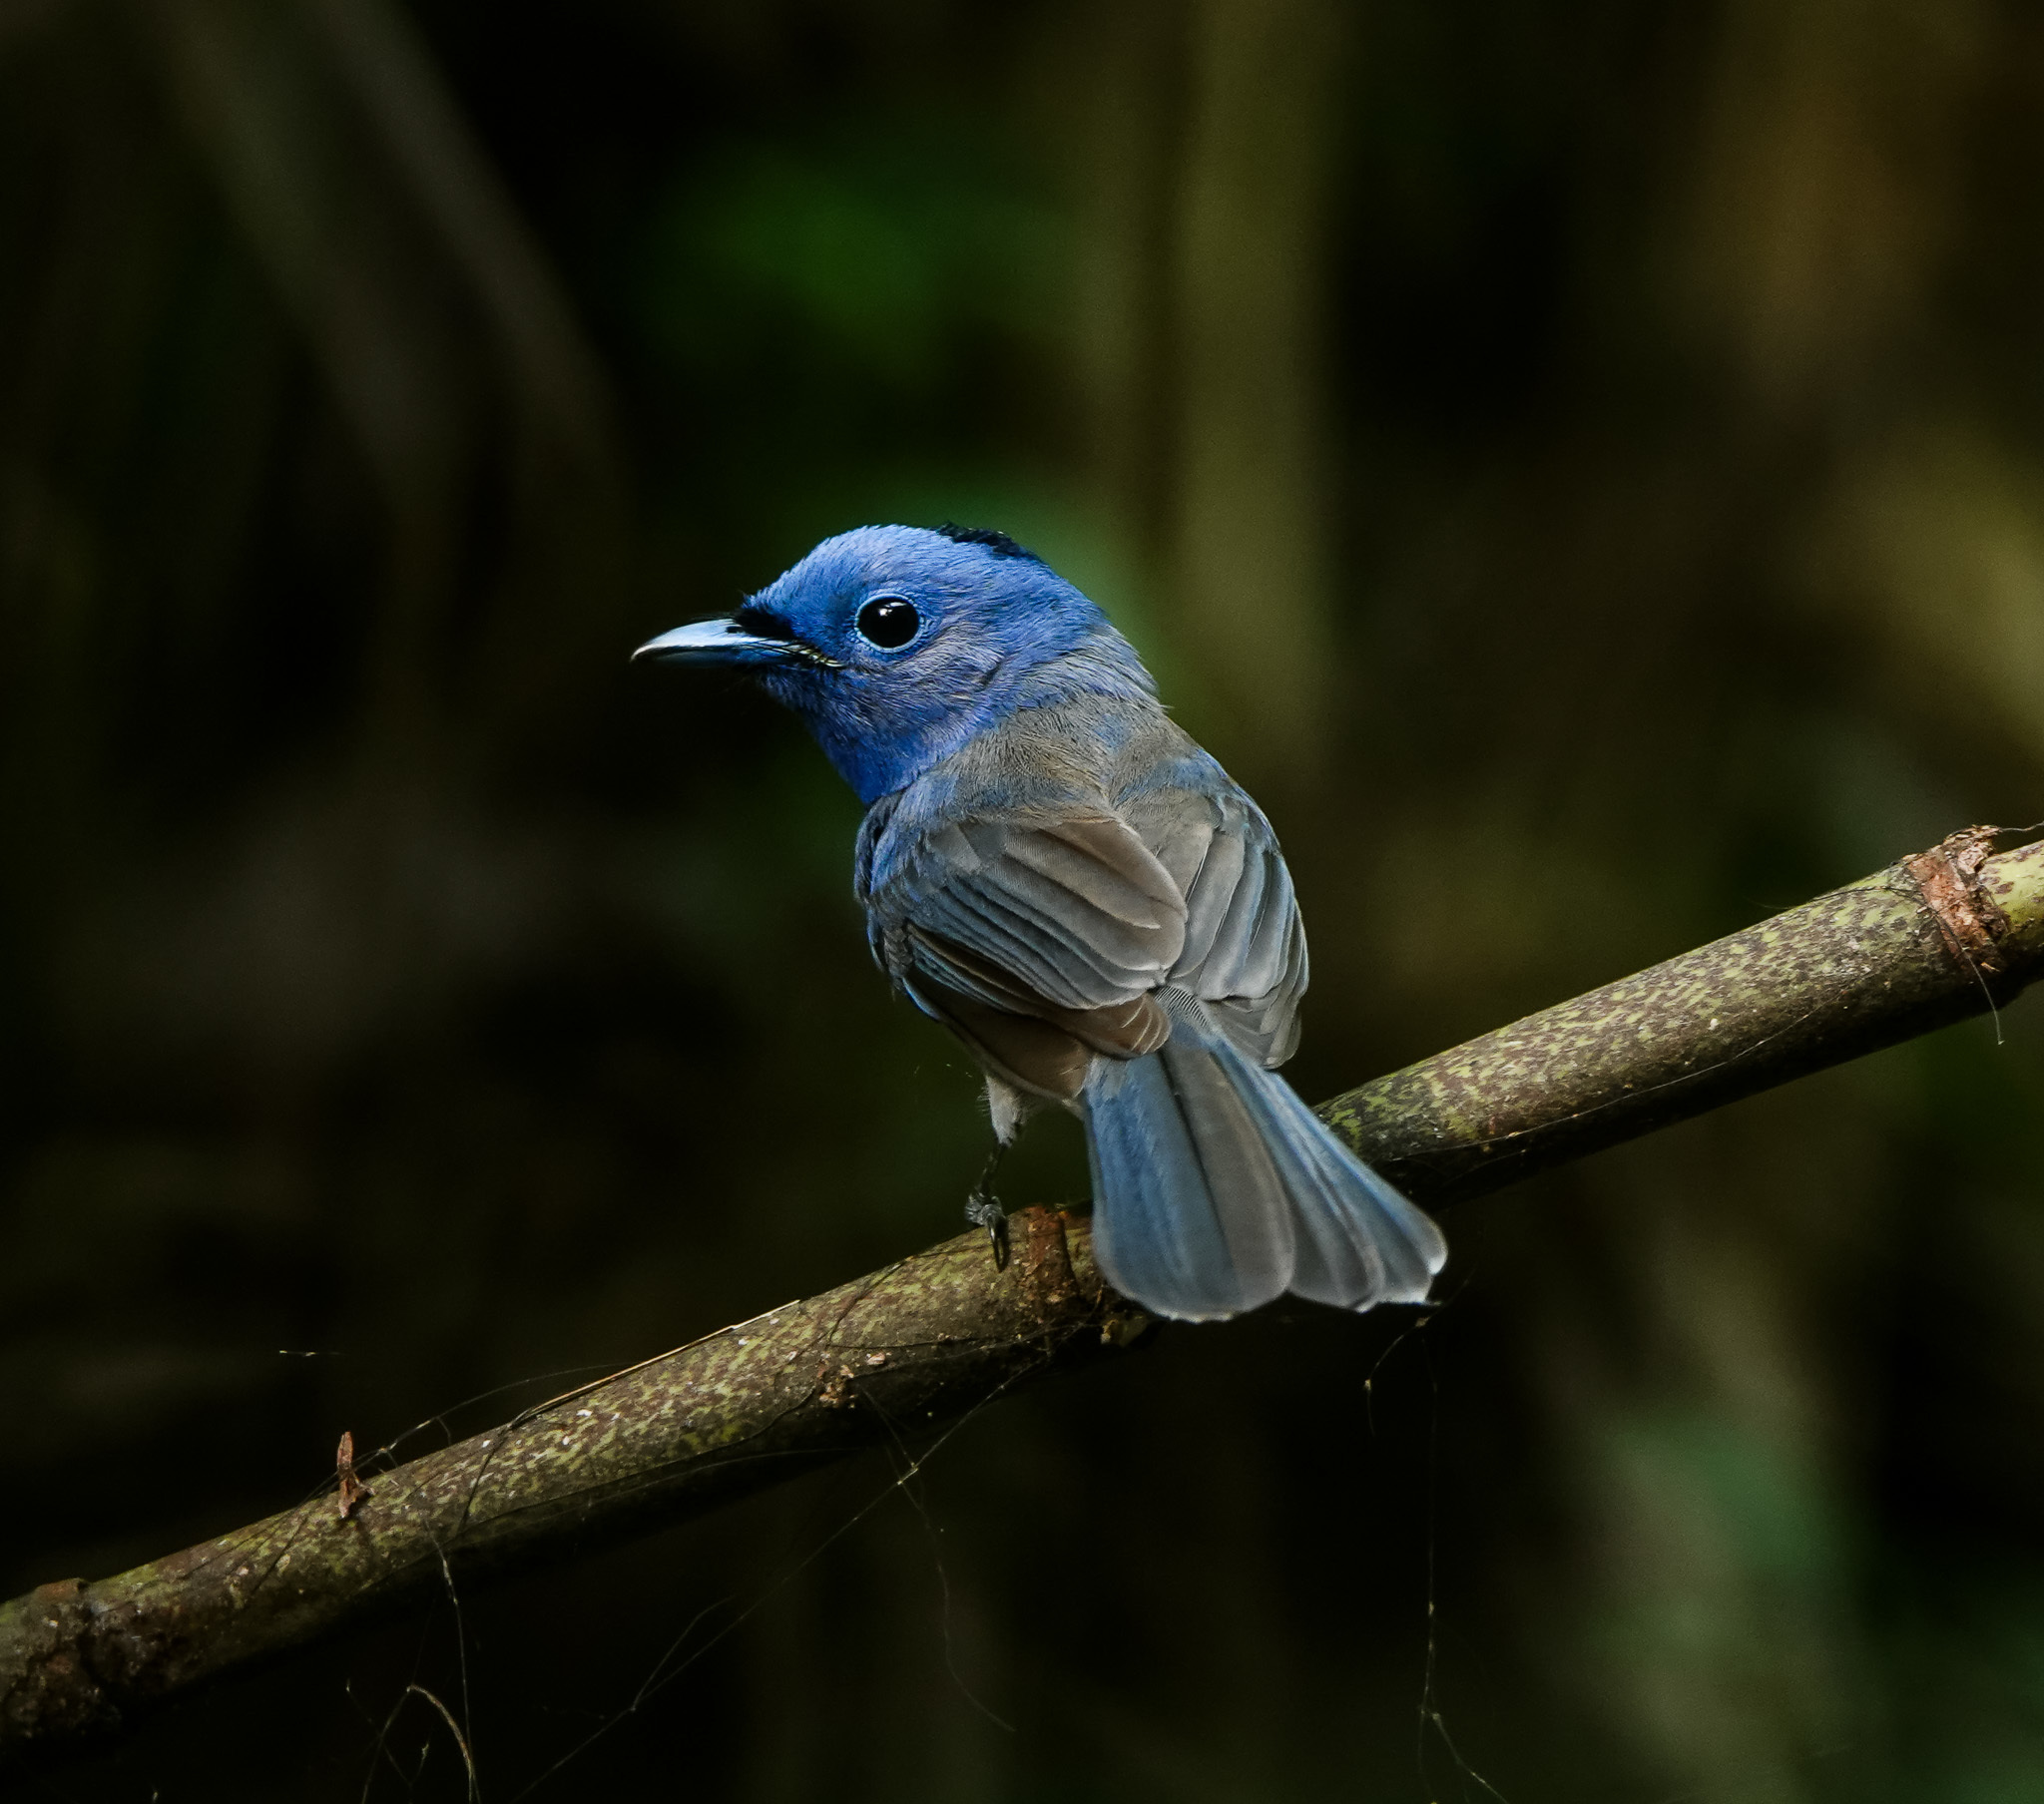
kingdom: Animalia
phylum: Chordata
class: Aves
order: Passeriformes
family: Monarchidae
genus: Hypothymis
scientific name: Hypothymis azurea
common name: Black-naped monarch
